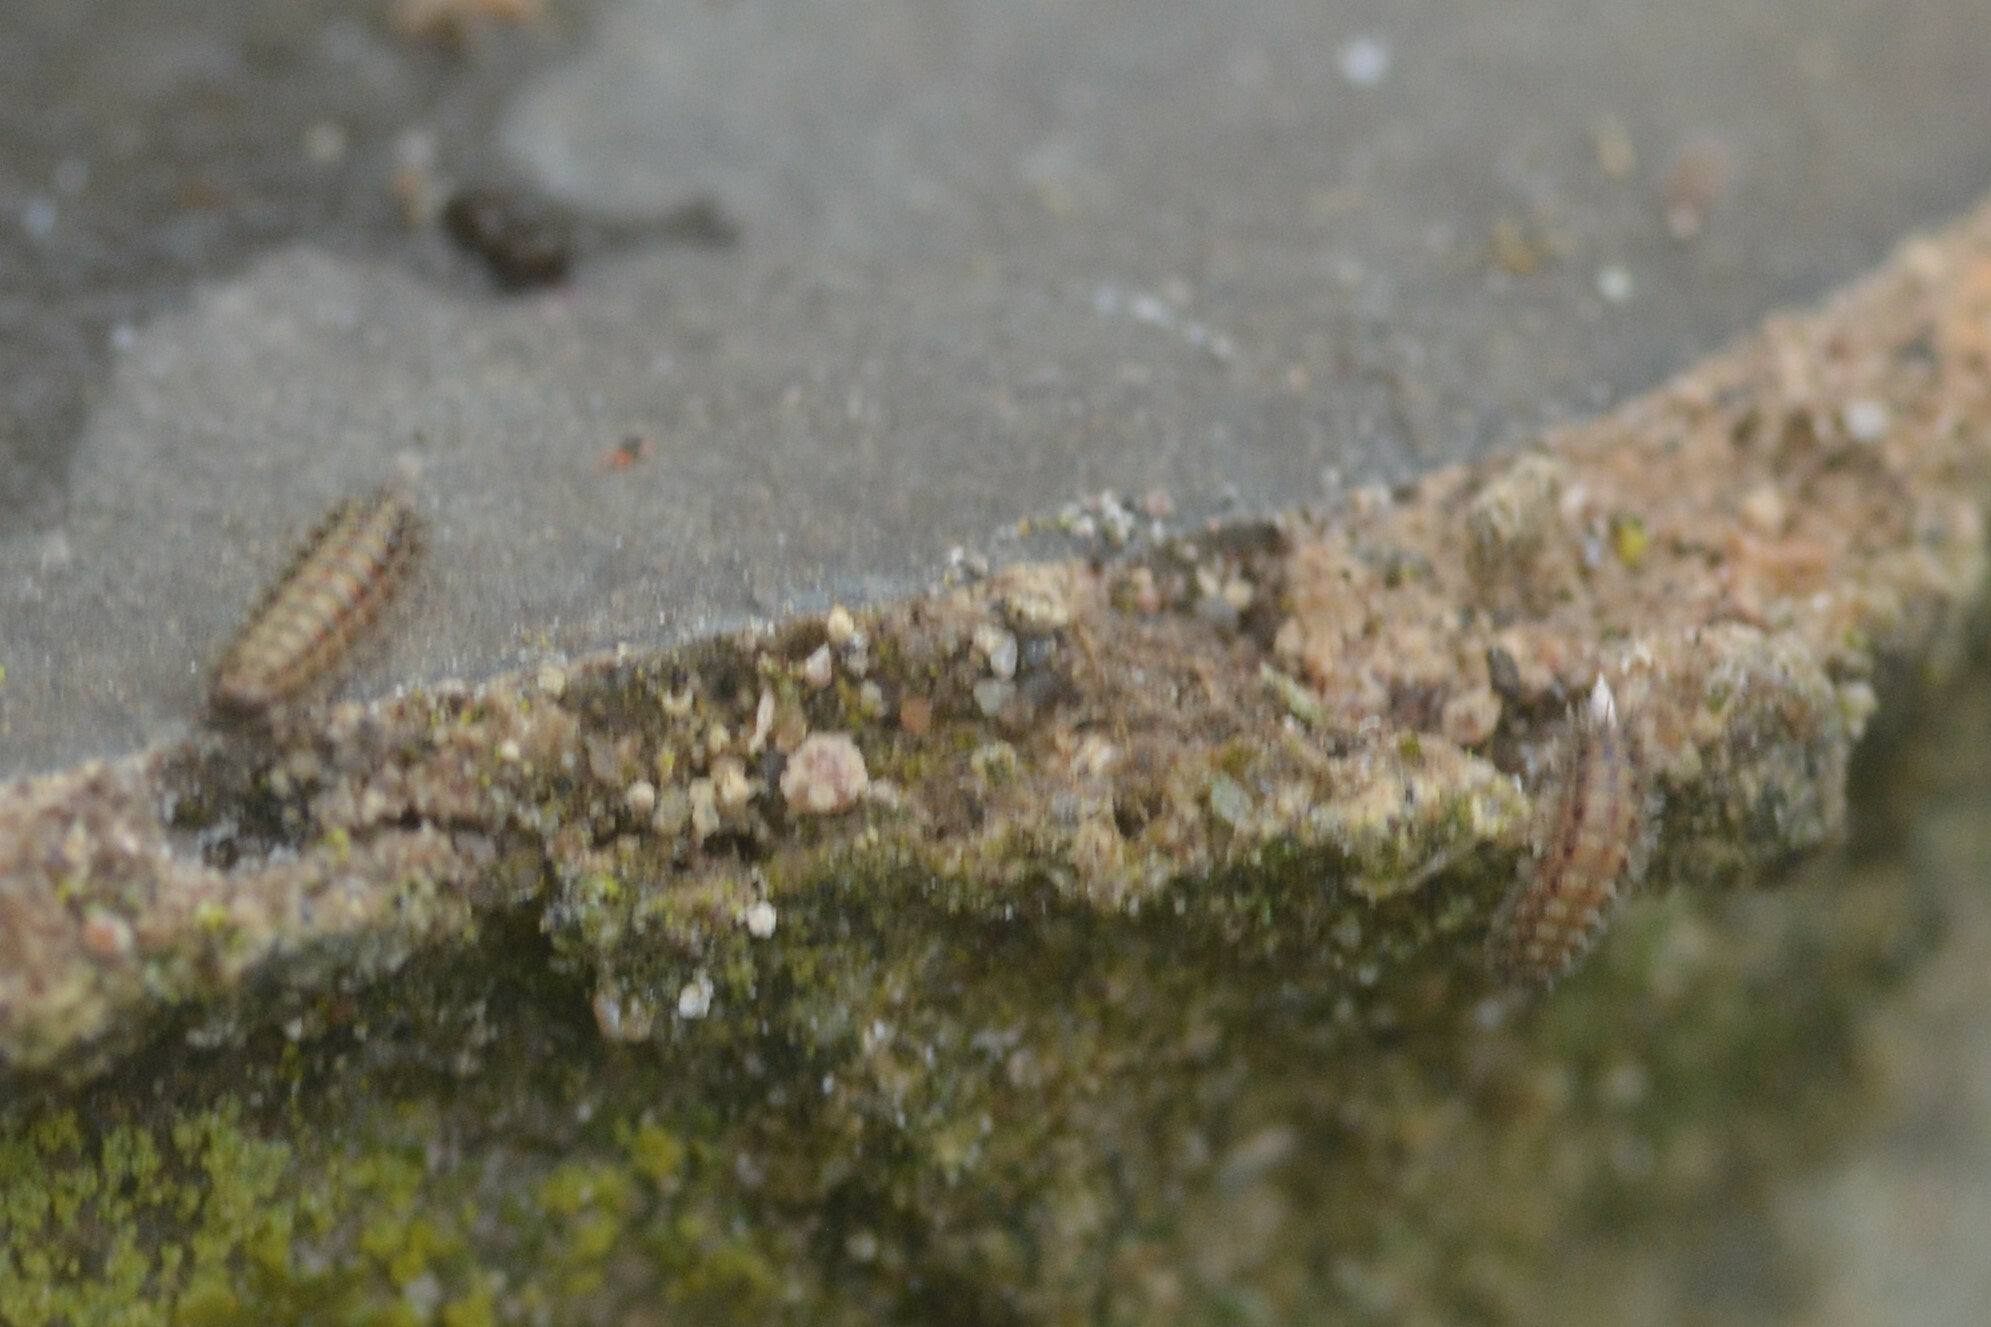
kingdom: Animalia
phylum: Arthropoda
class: Diplopoda
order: Polyxenida
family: Polyxenidae
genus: Polyxenus
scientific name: Polyxenus lagurus
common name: Bristly millipede
